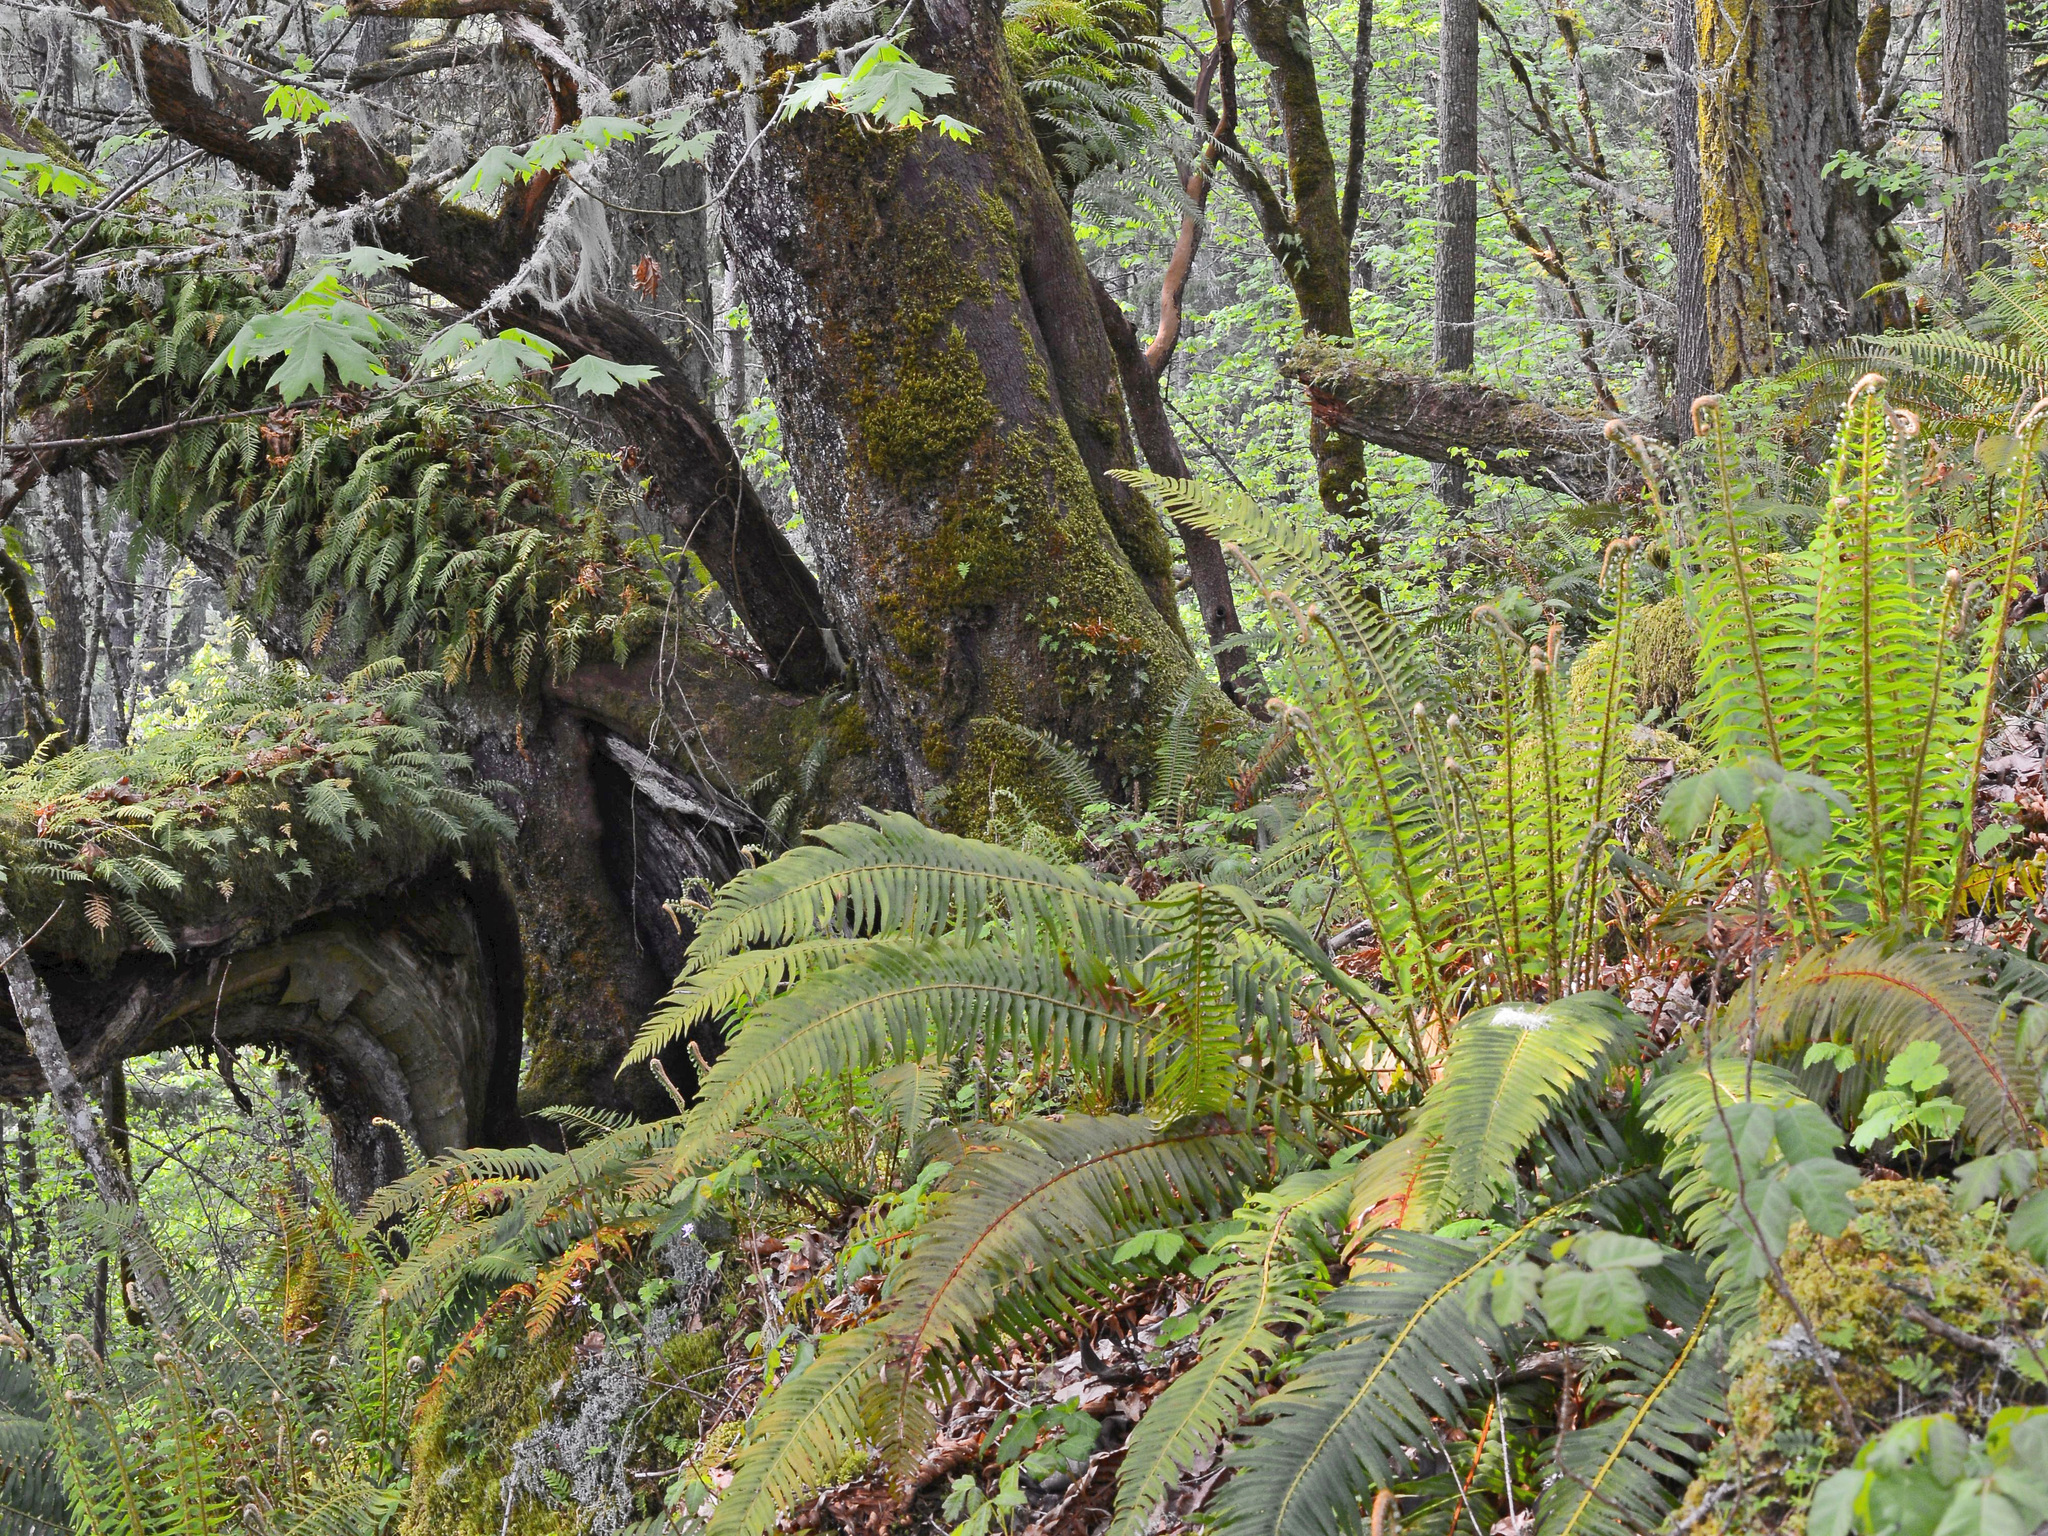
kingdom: Plantae
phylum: Tracheophyta
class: Polypodiopsida
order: Polypodiales
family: Dryopteridaceae
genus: Polystichum
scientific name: Polystichum munitum
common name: Western sword-fern
